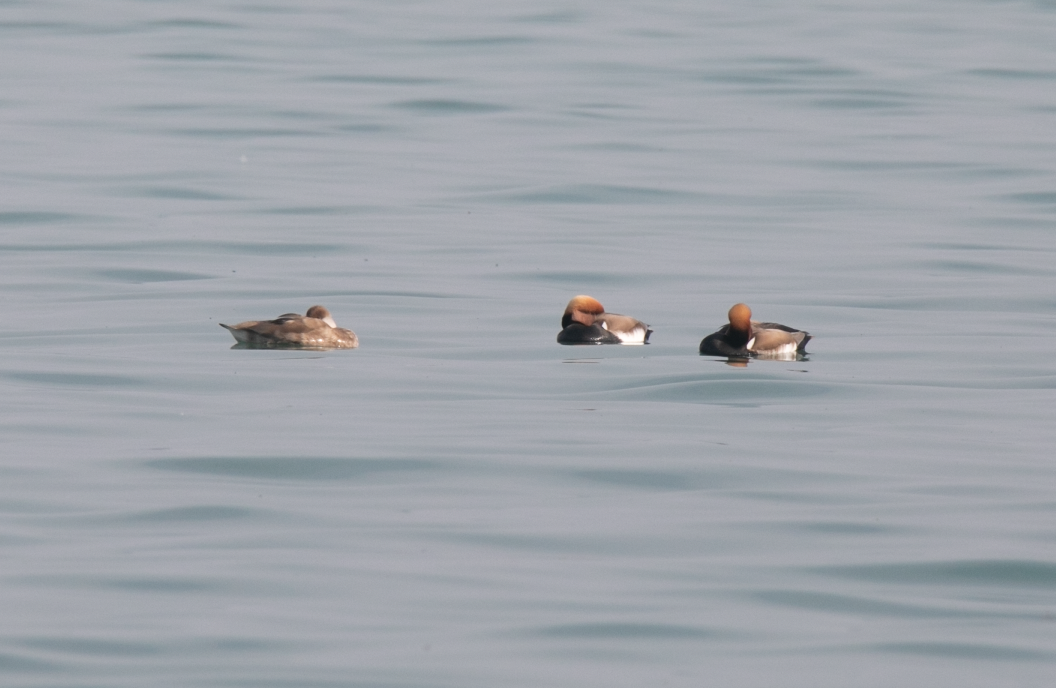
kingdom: Animalia
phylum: Chordata
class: Aves
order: Anseriformes
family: Anatidae
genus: Netta
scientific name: Netta rufina
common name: Red-crested pochard
